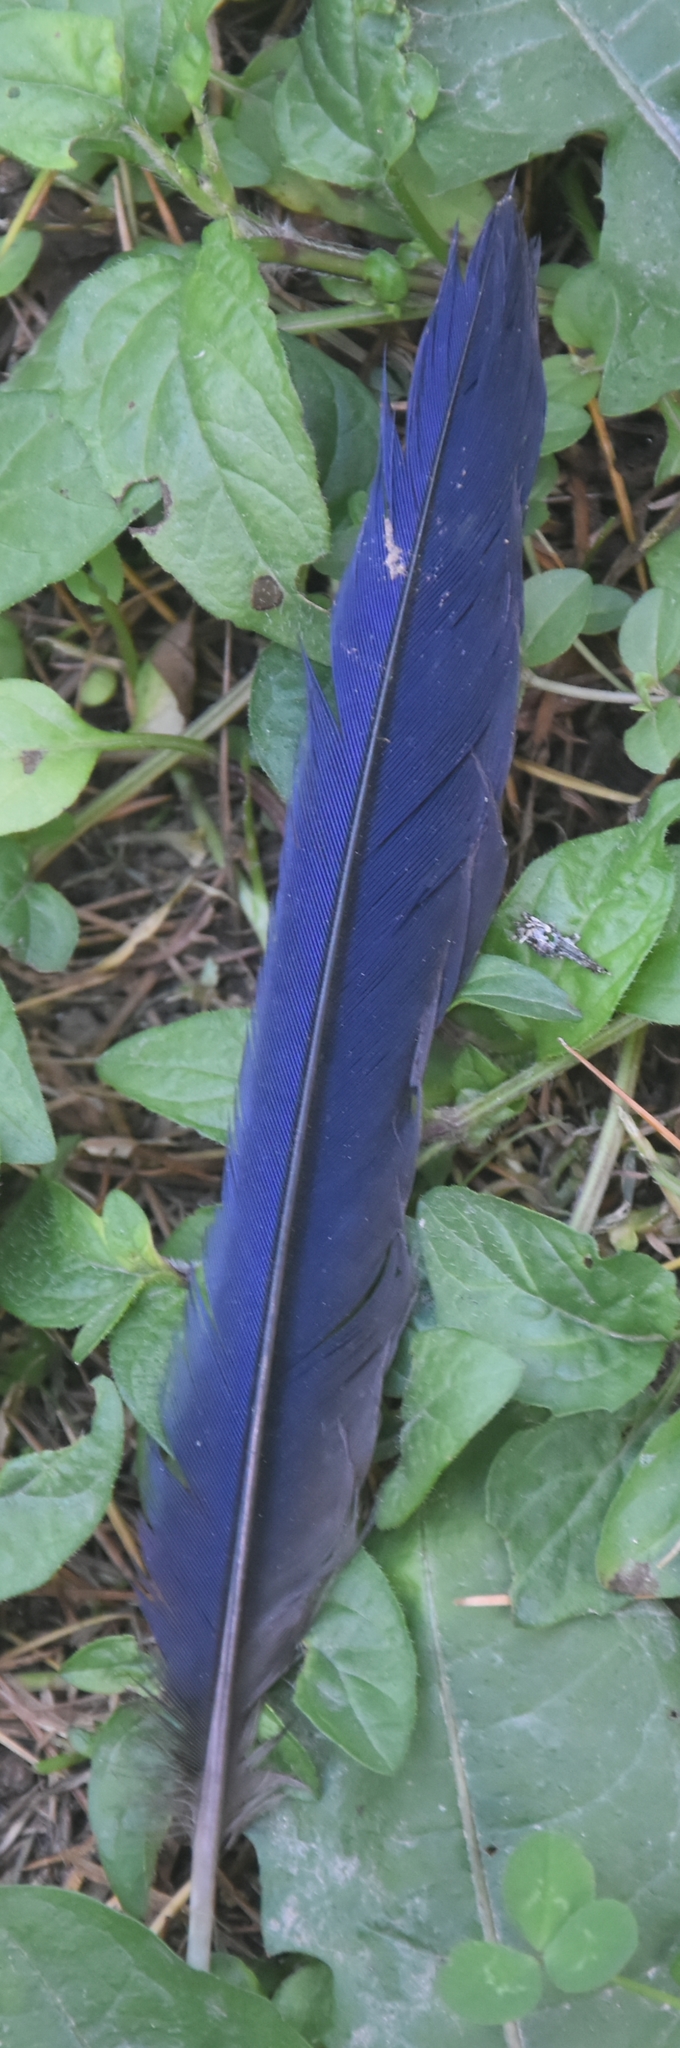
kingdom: Animalia
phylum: Chordata
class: Aves
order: Passeriformes
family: Muscicapidae
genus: Myophonus
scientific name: Myophonus caeruleus
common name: Blue whistling-thrush
